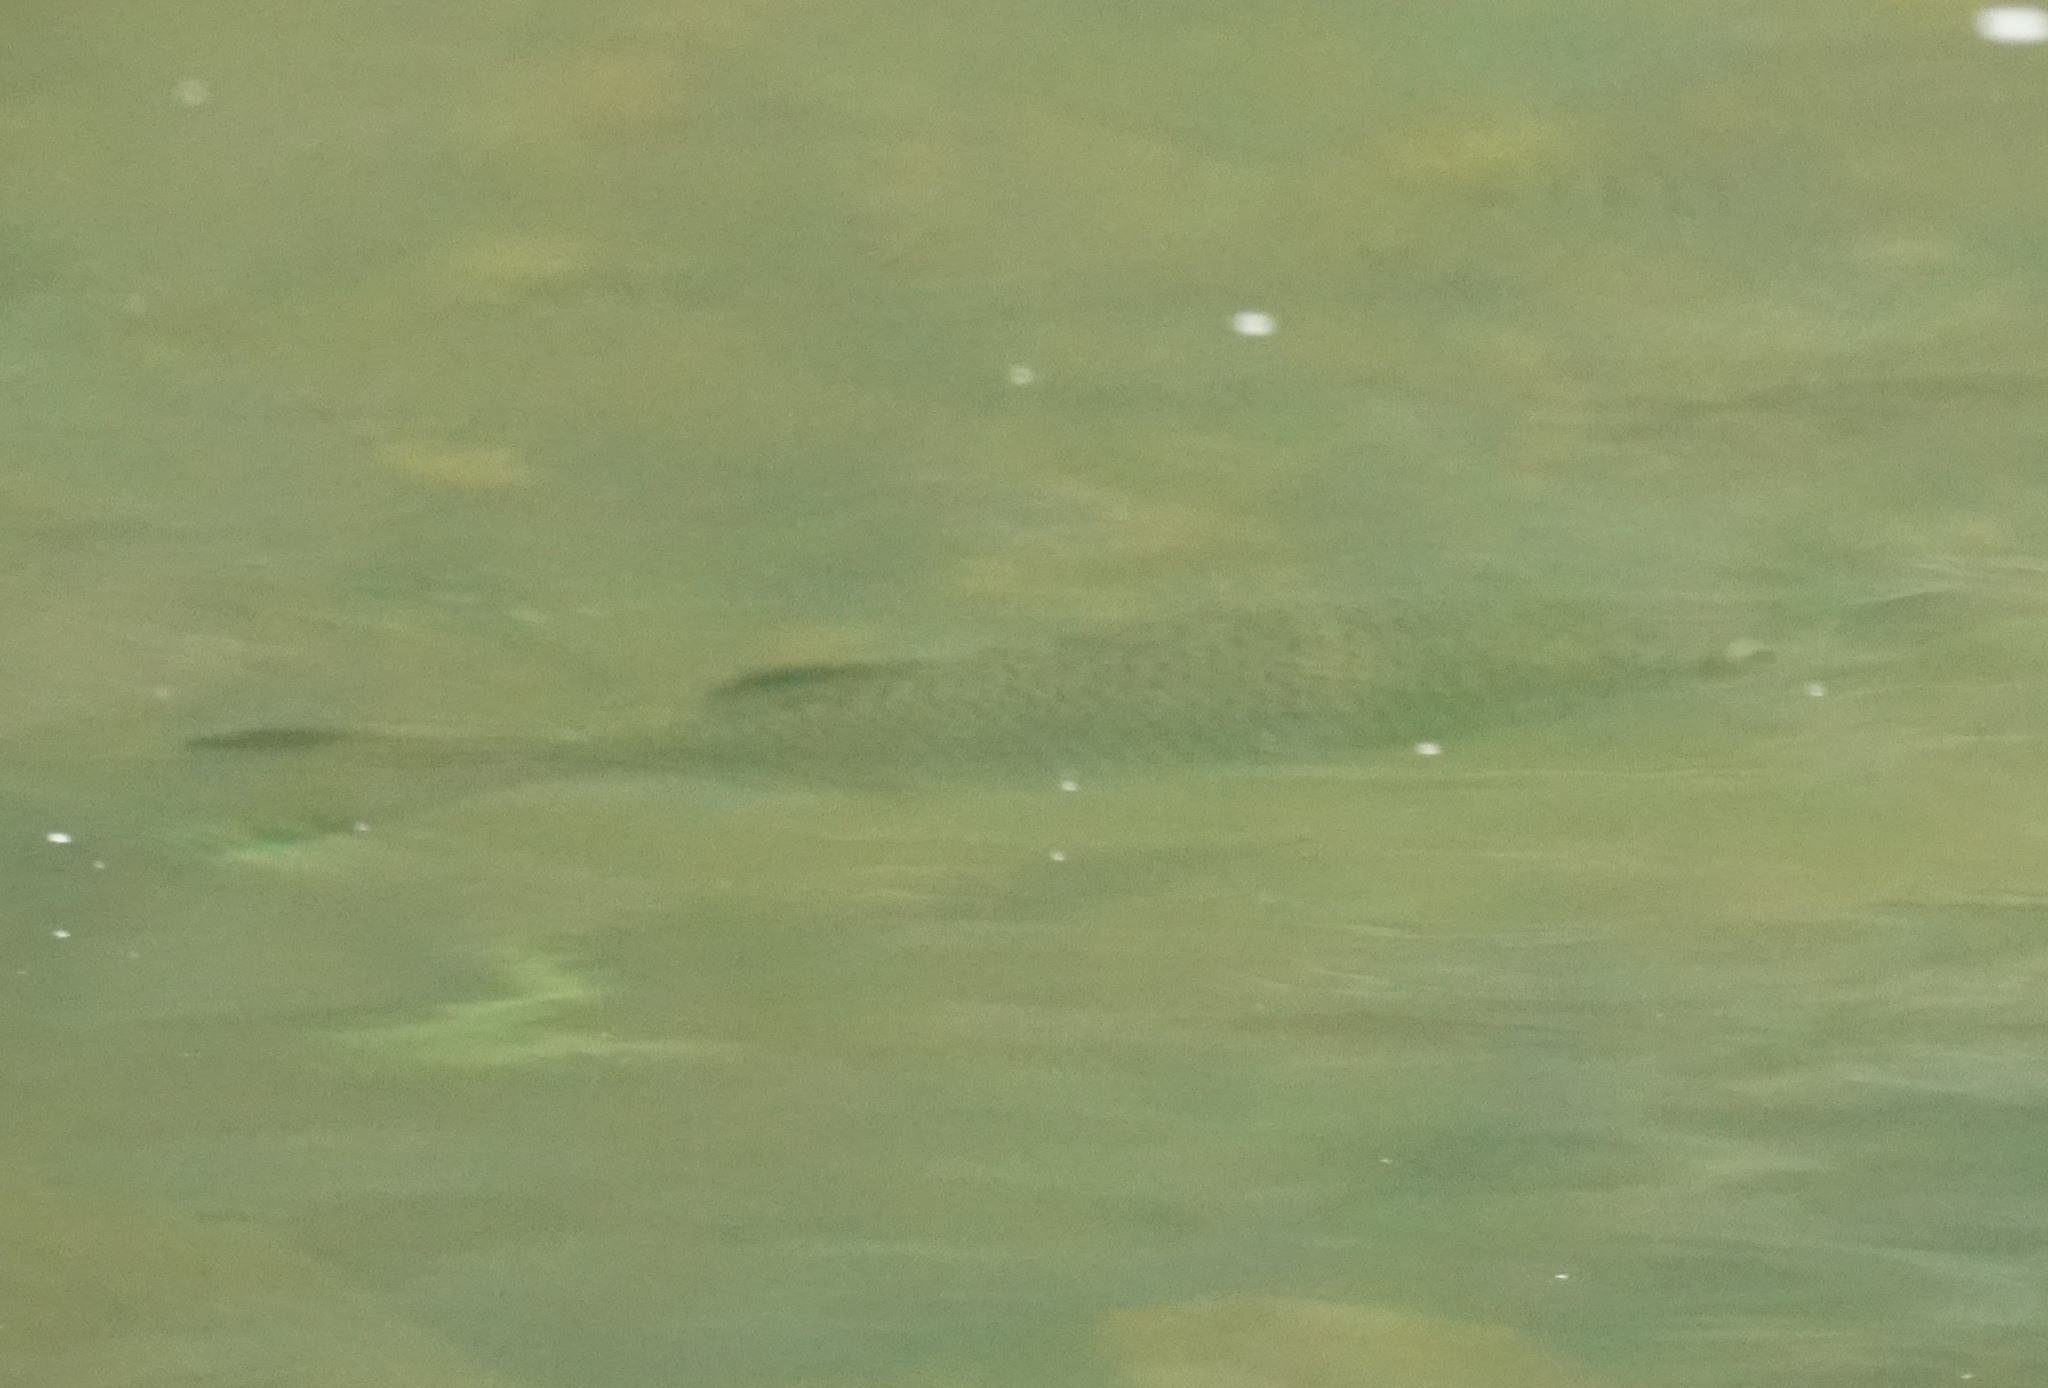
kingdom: Animalia
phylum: Chordata
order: Perciformes
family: Kuhliidae
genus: Kuhlia
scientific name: Kuhlia rupestris
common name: Rock flagtail
